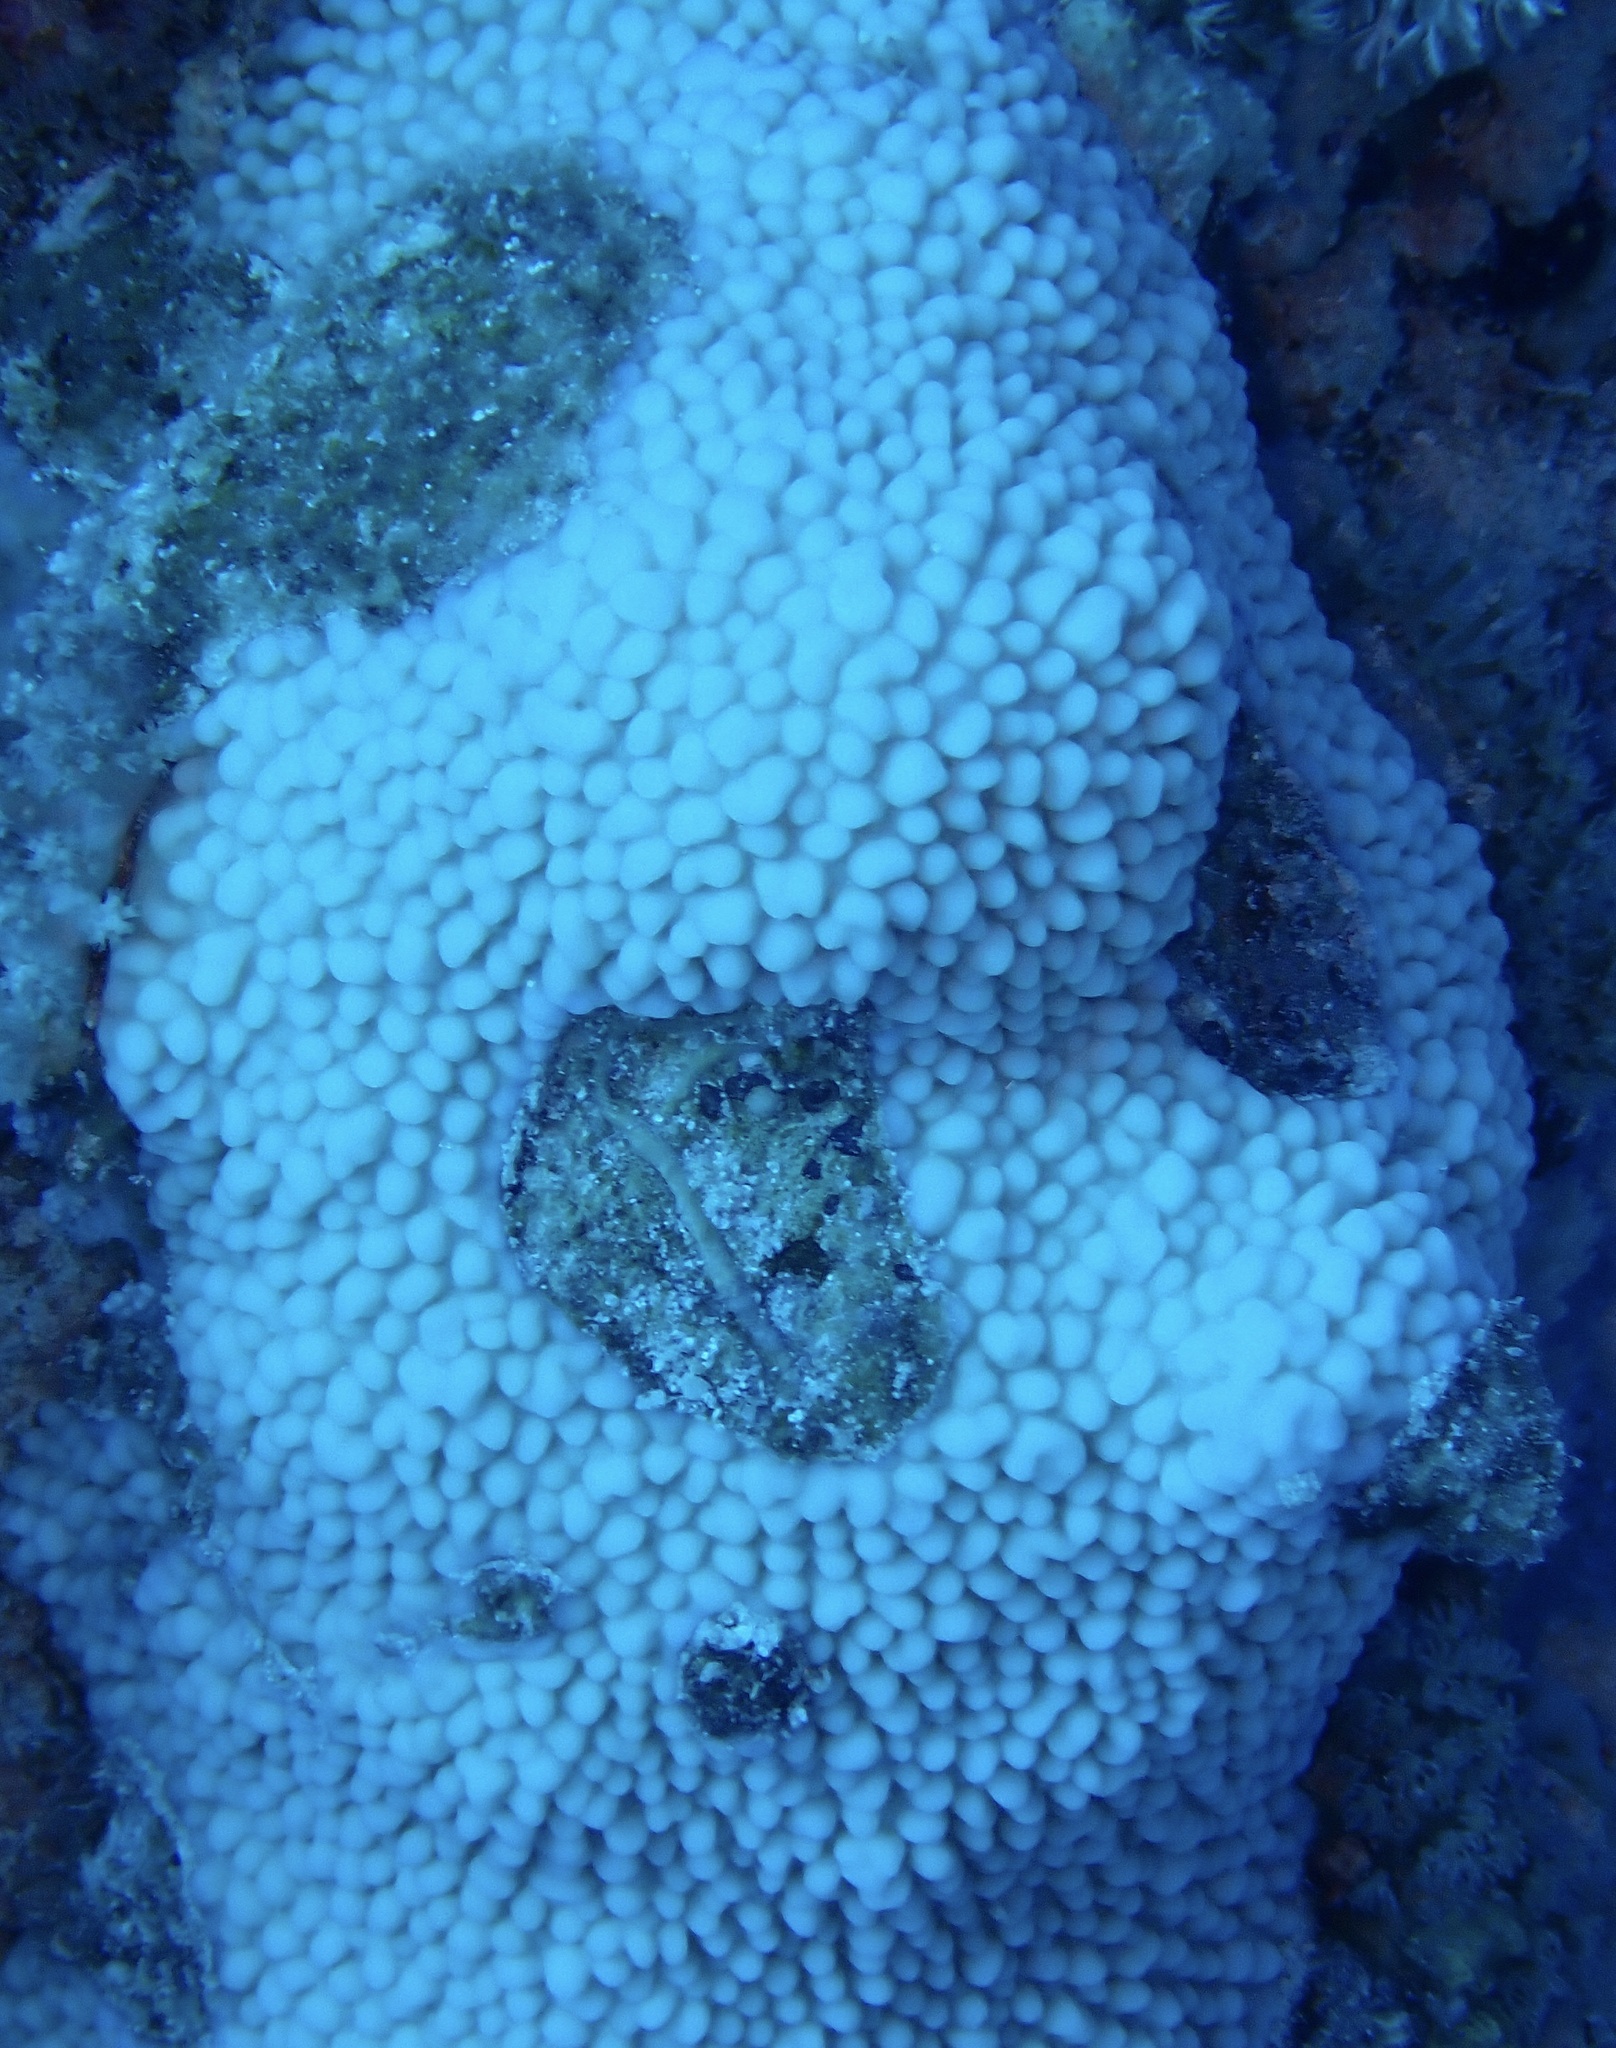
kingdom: Animalia
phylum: Cnidaria
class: Anthozoa
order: Scleractinia
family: Acroporidae
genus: Montipora
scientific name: Montipora danae
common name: Pore coral
